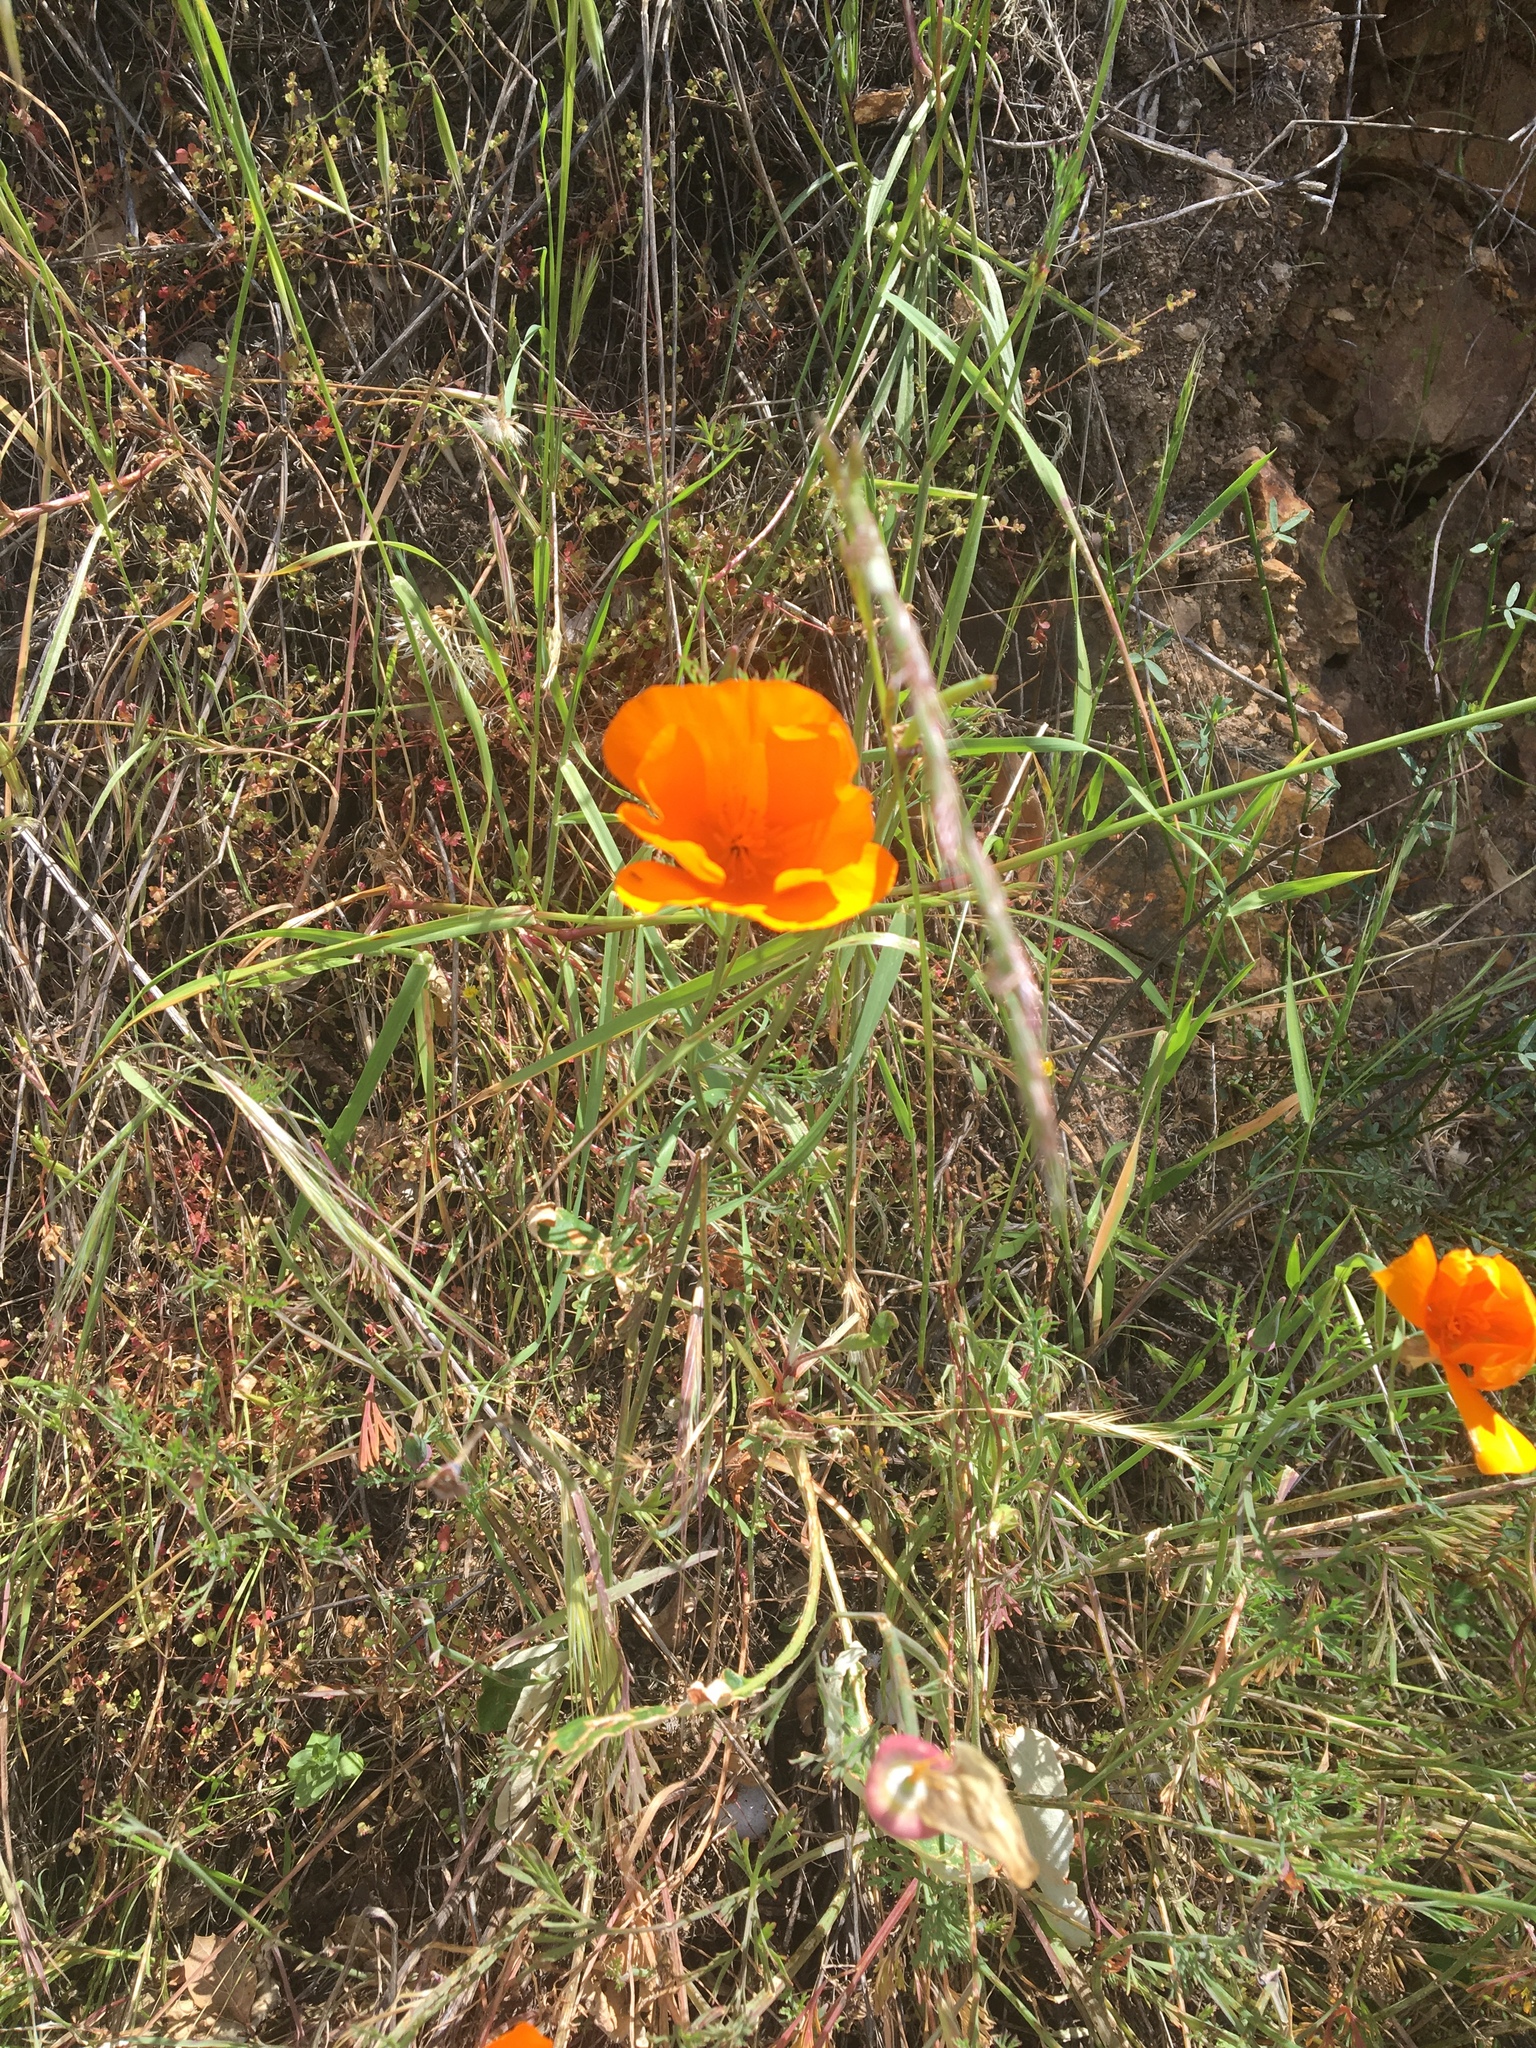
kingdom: Plantae
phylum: Tracheophyta
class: Magnoliopsida
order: Ranunculales
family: Papaveraceae
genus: Eschscholzia
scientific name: Eschscholzia californica
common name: California poppy
